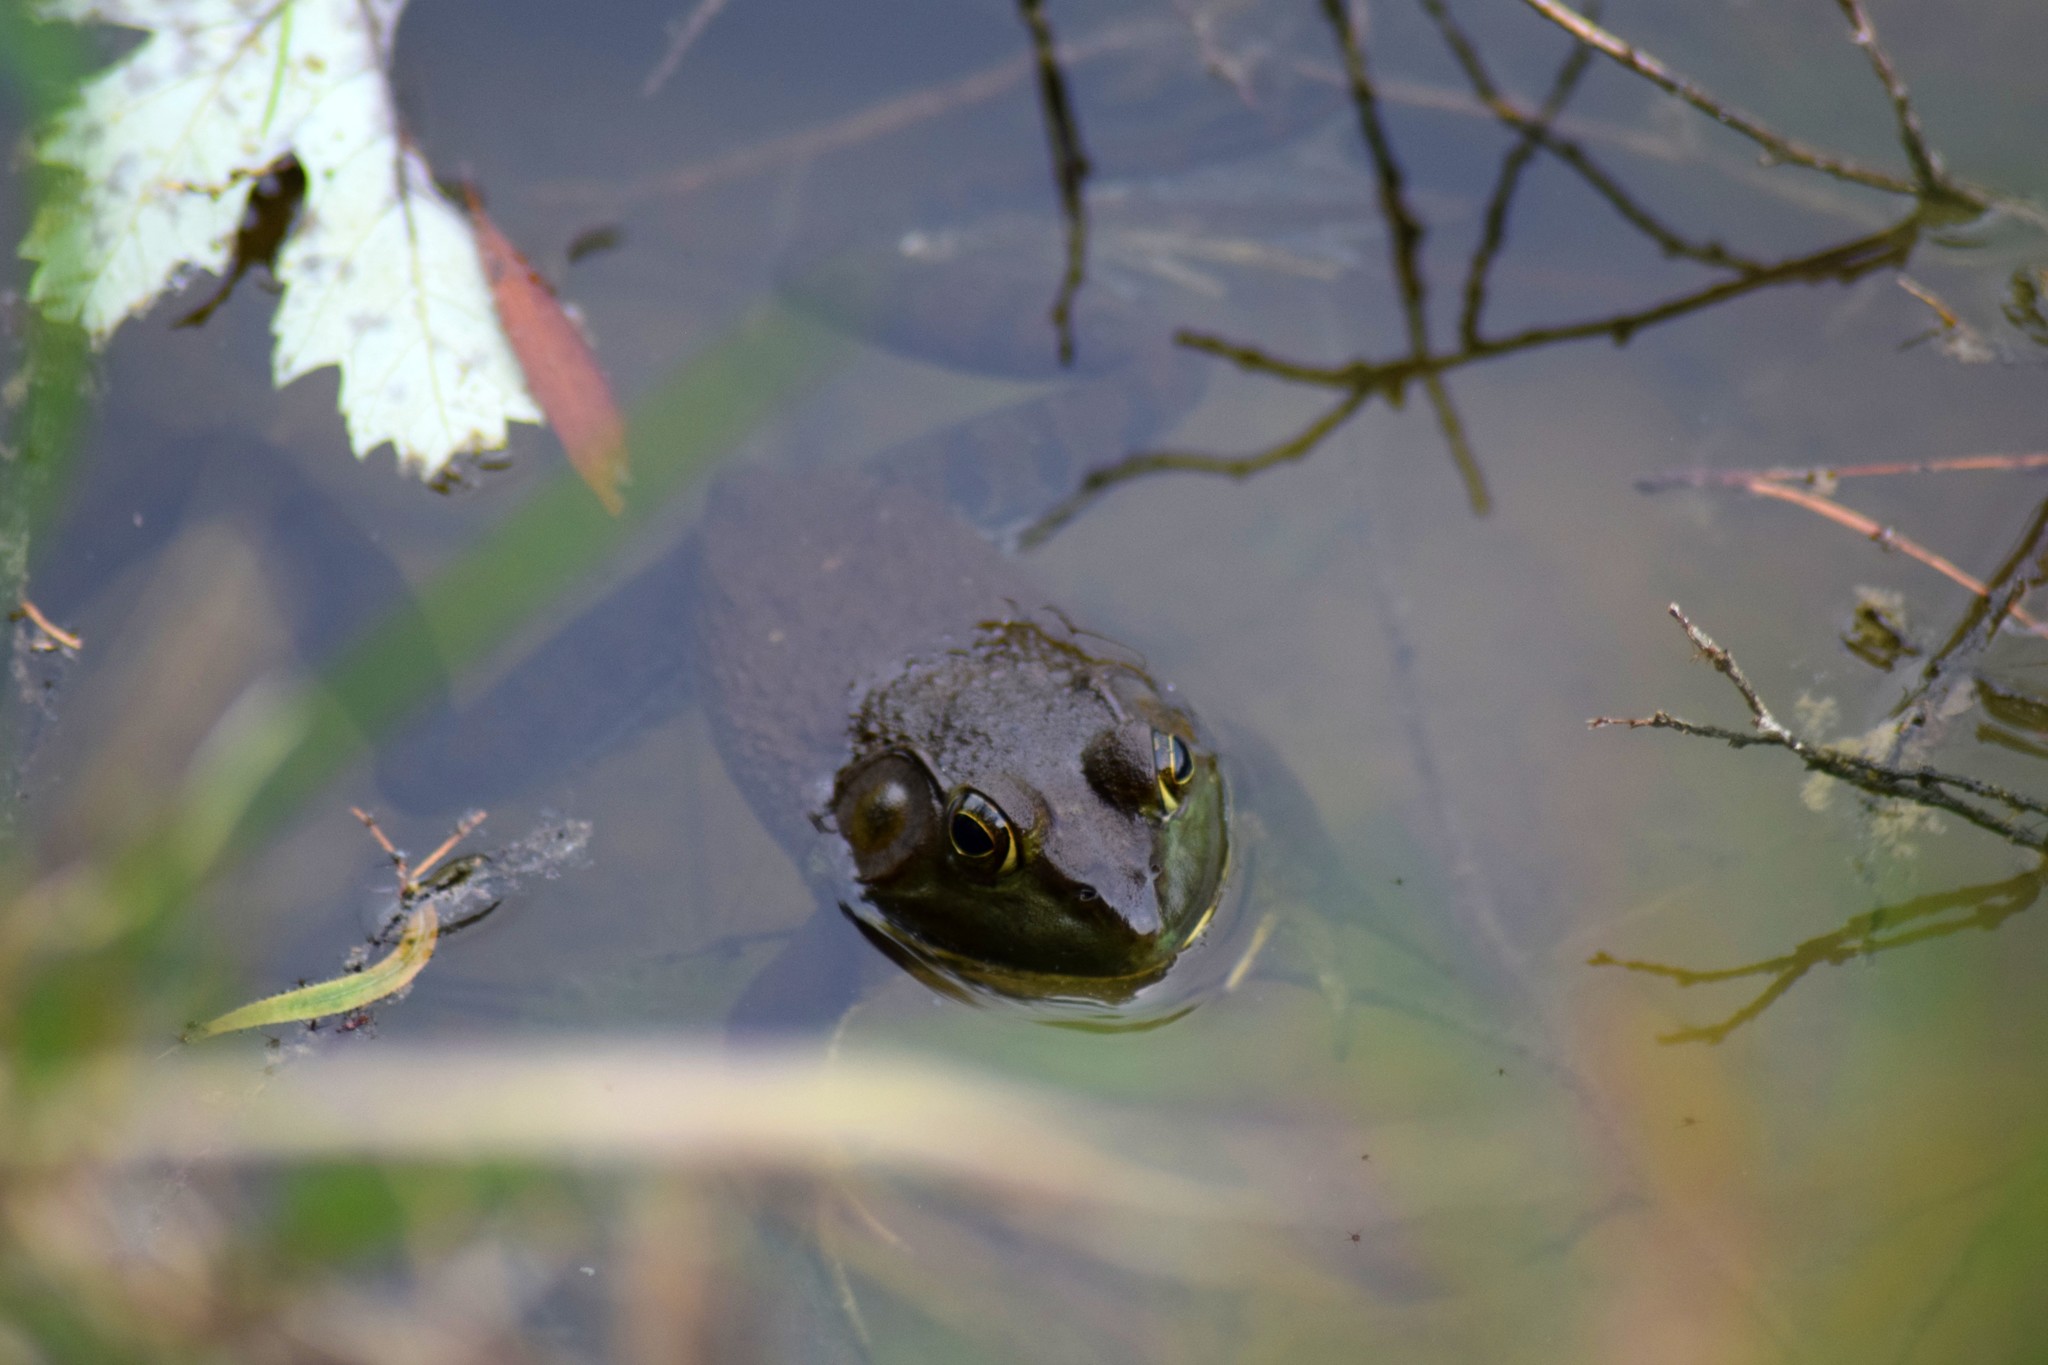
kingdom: Animalia
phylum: Chordata
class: Amphibia
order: Anura
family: Ranidae
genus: Lithobates
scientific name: Lithobates catesbeianus
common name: American bullfrog
